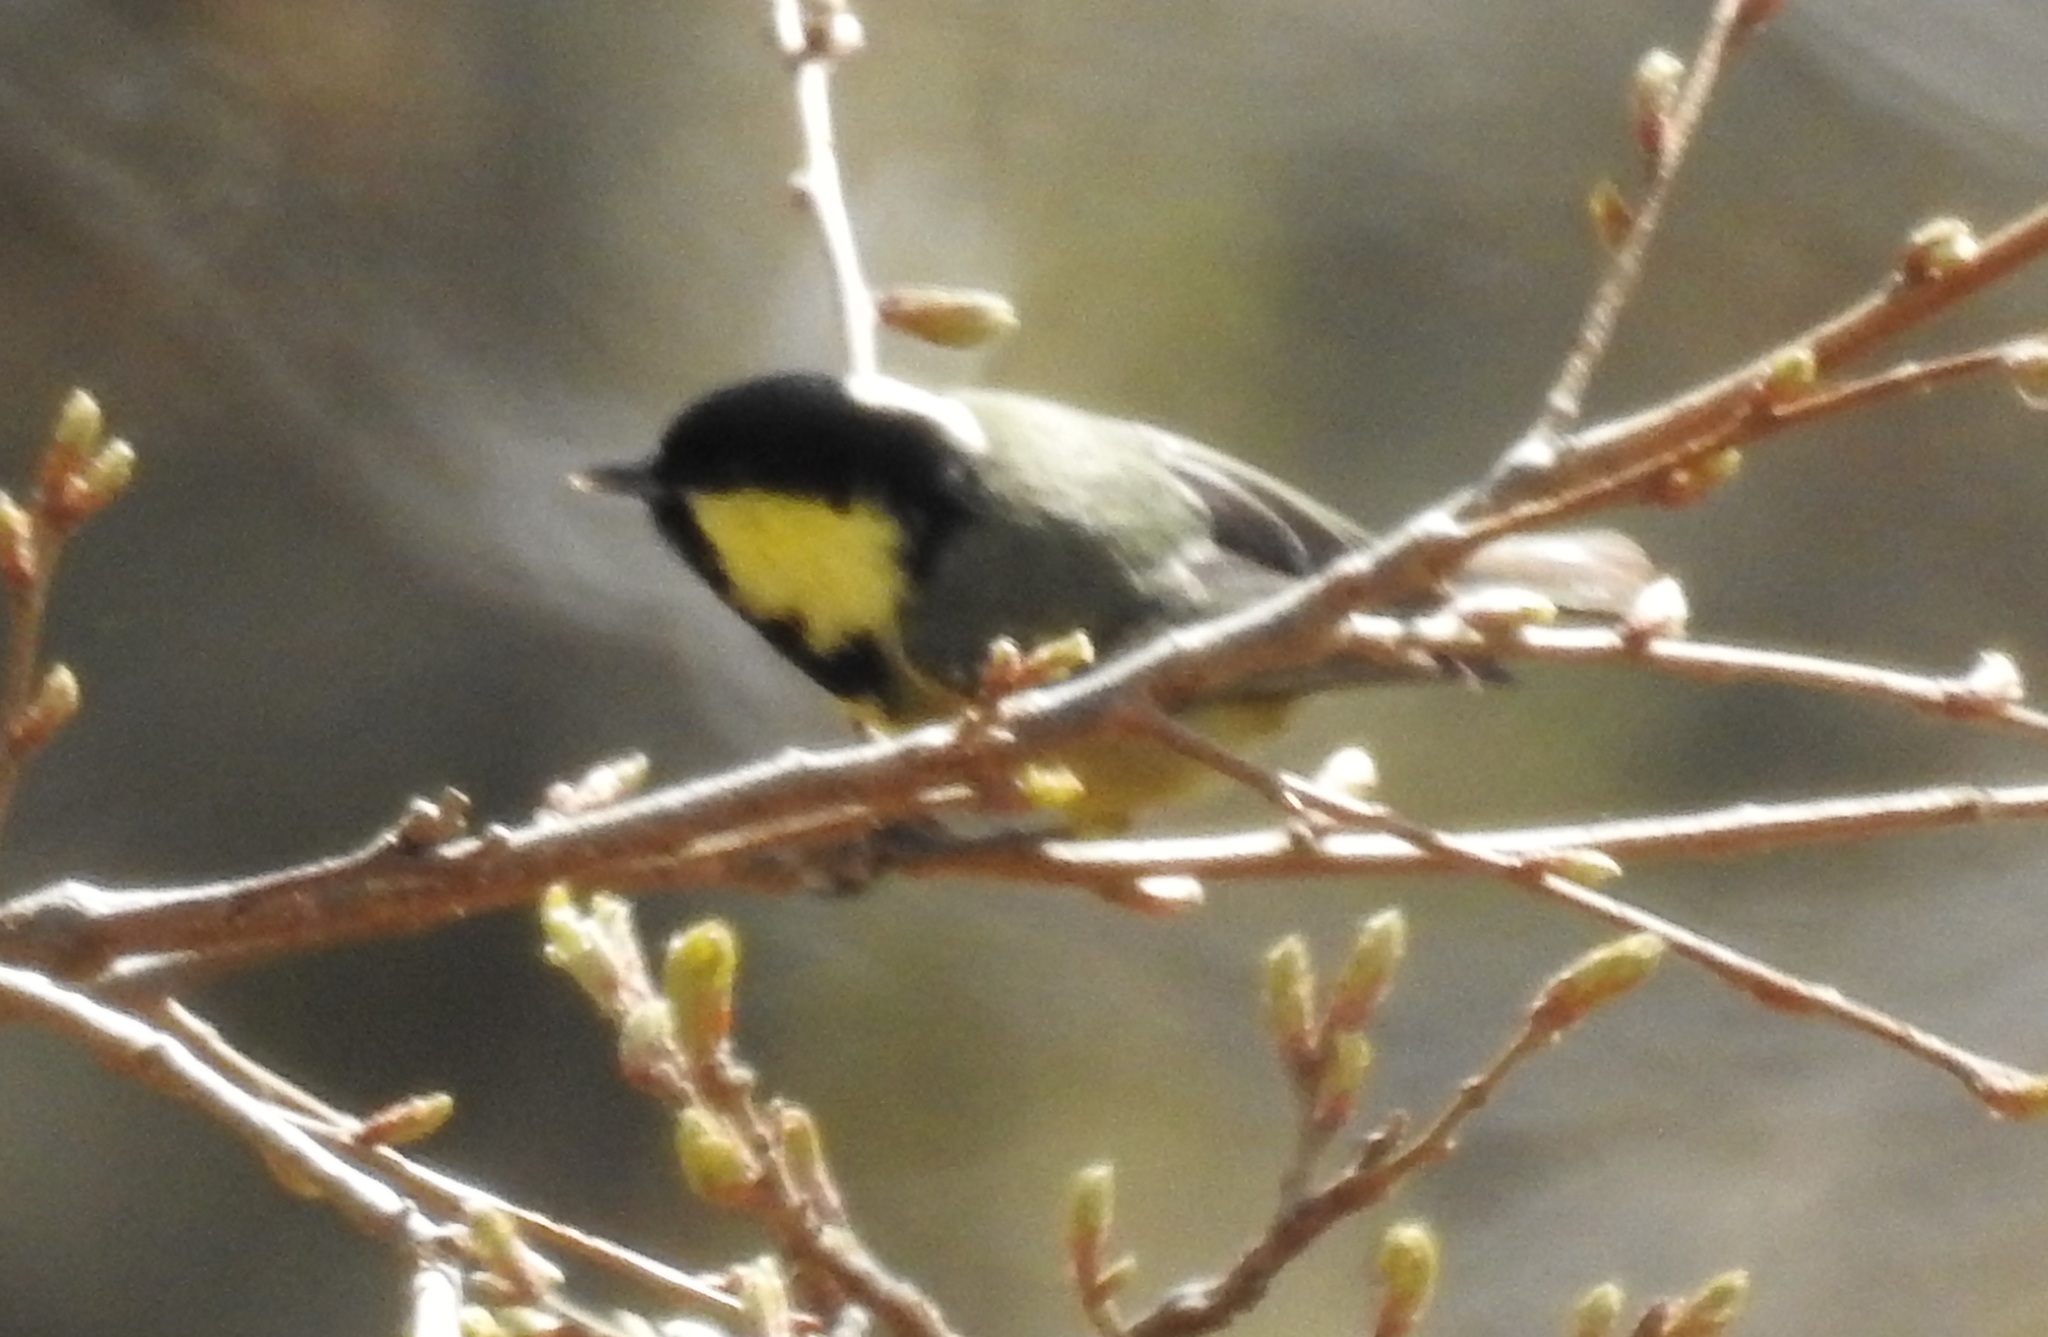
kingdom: Animalia
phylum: Chordata
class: Aves
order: Passeriformes
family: Paridae
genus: Periparus
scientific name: Periparus ater
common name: Coal tit
